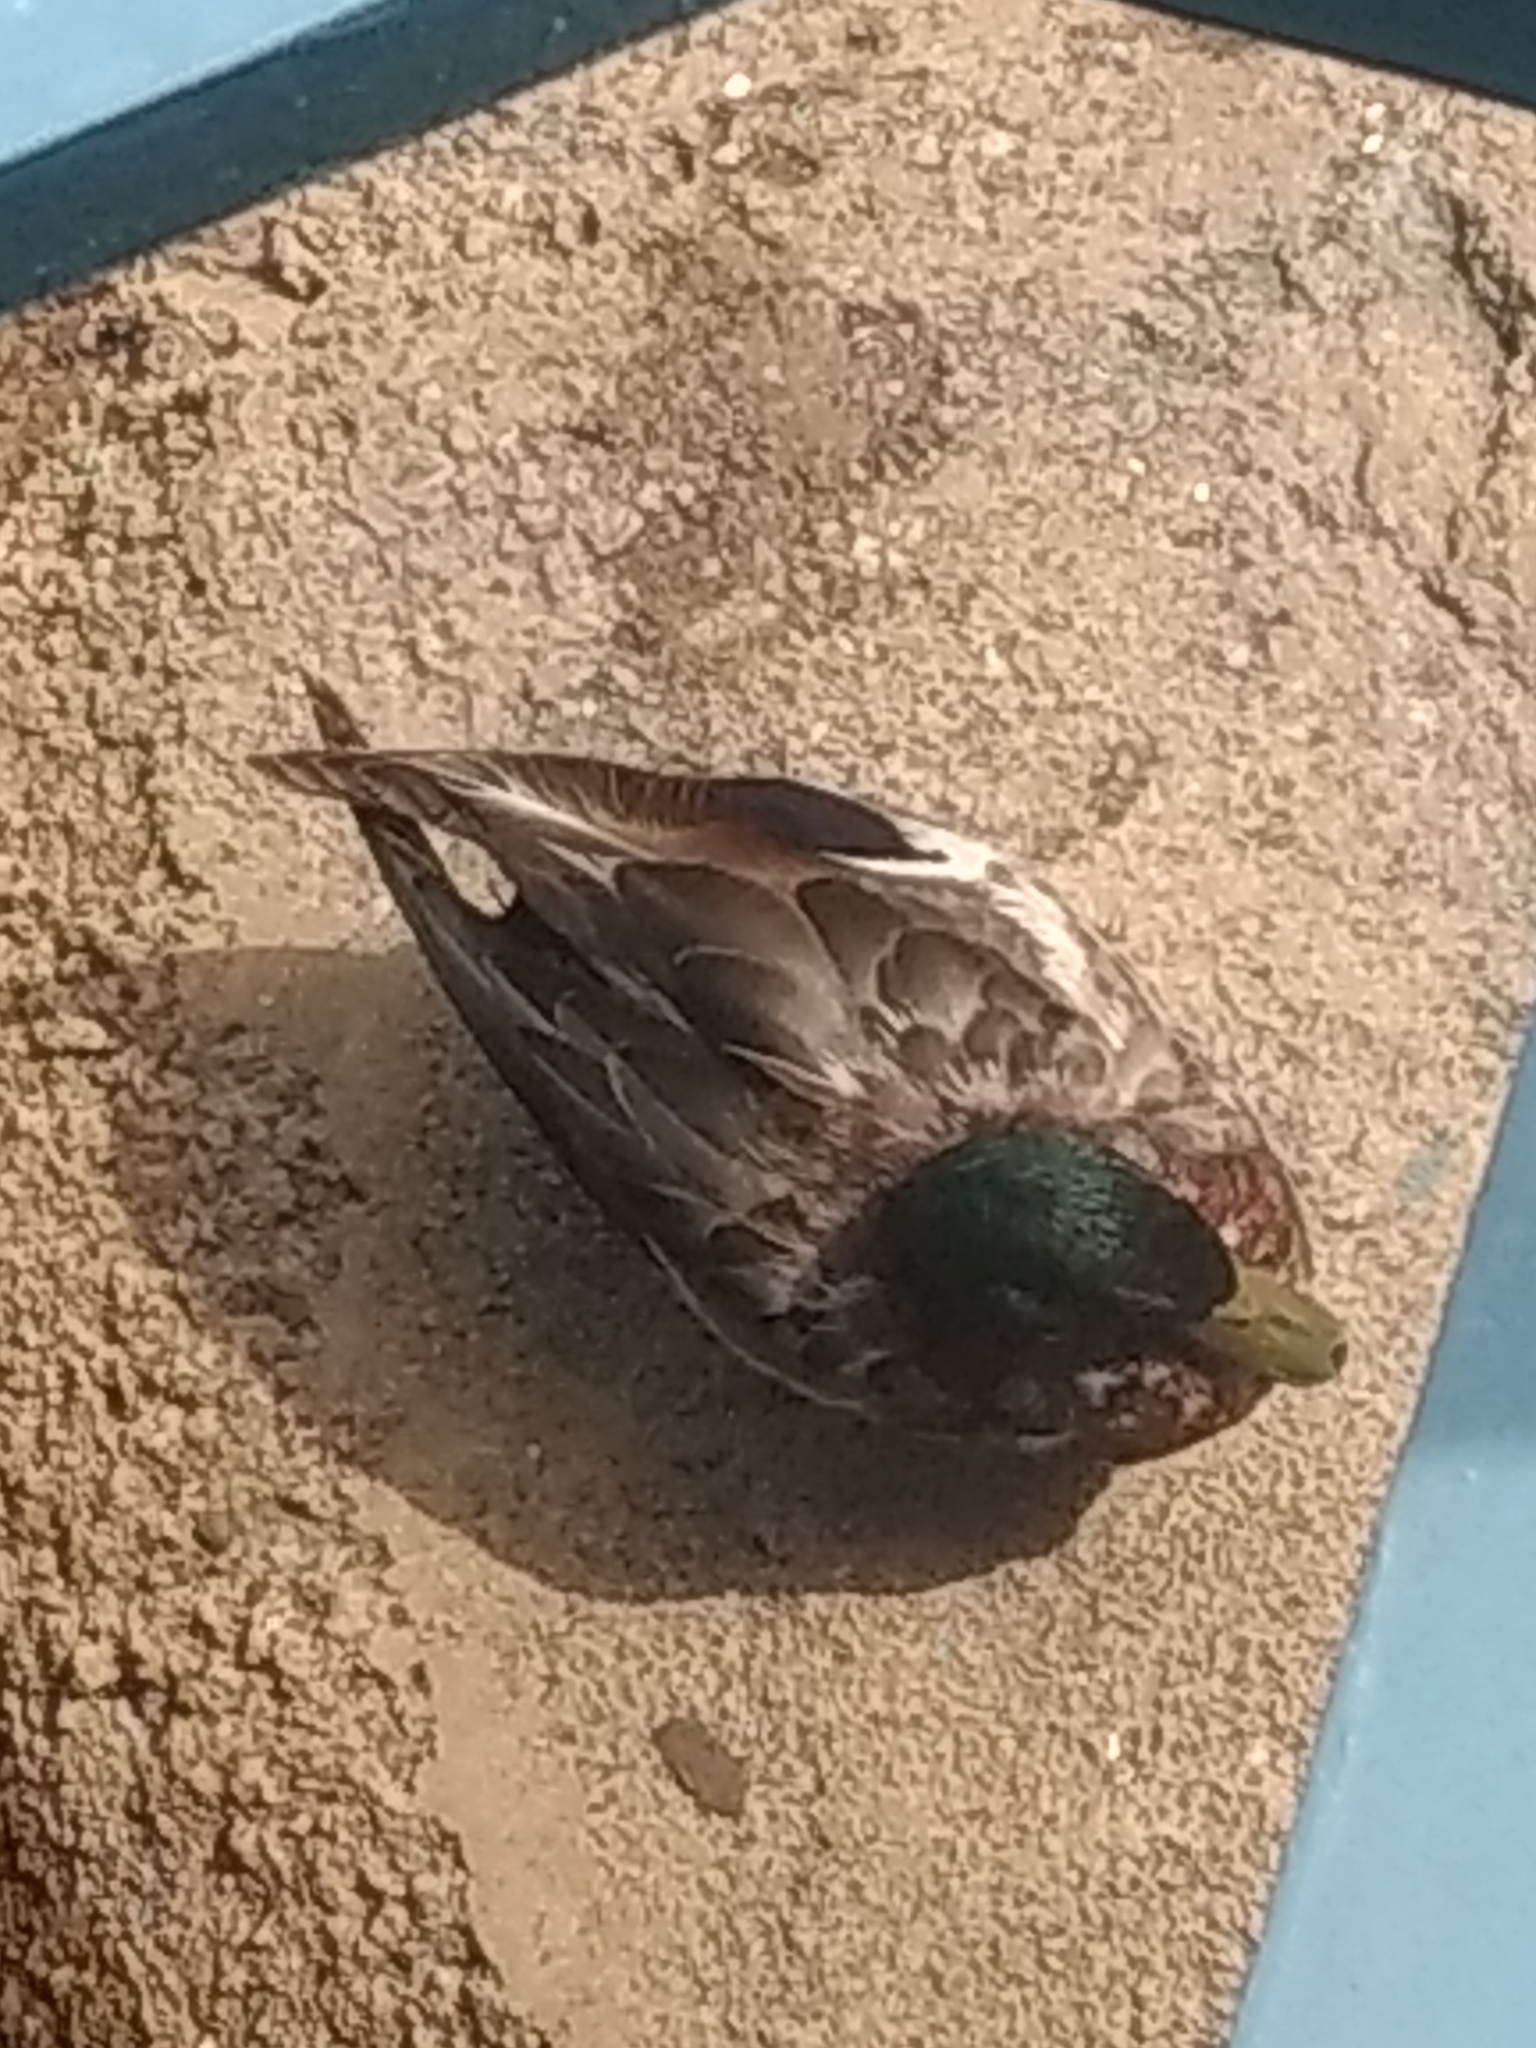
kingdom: Animalia
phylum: Chordata
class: Aves
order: Anseriformes
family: Anatidae
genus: Anas
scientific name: Anas platyrhynchos
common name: Mallard
